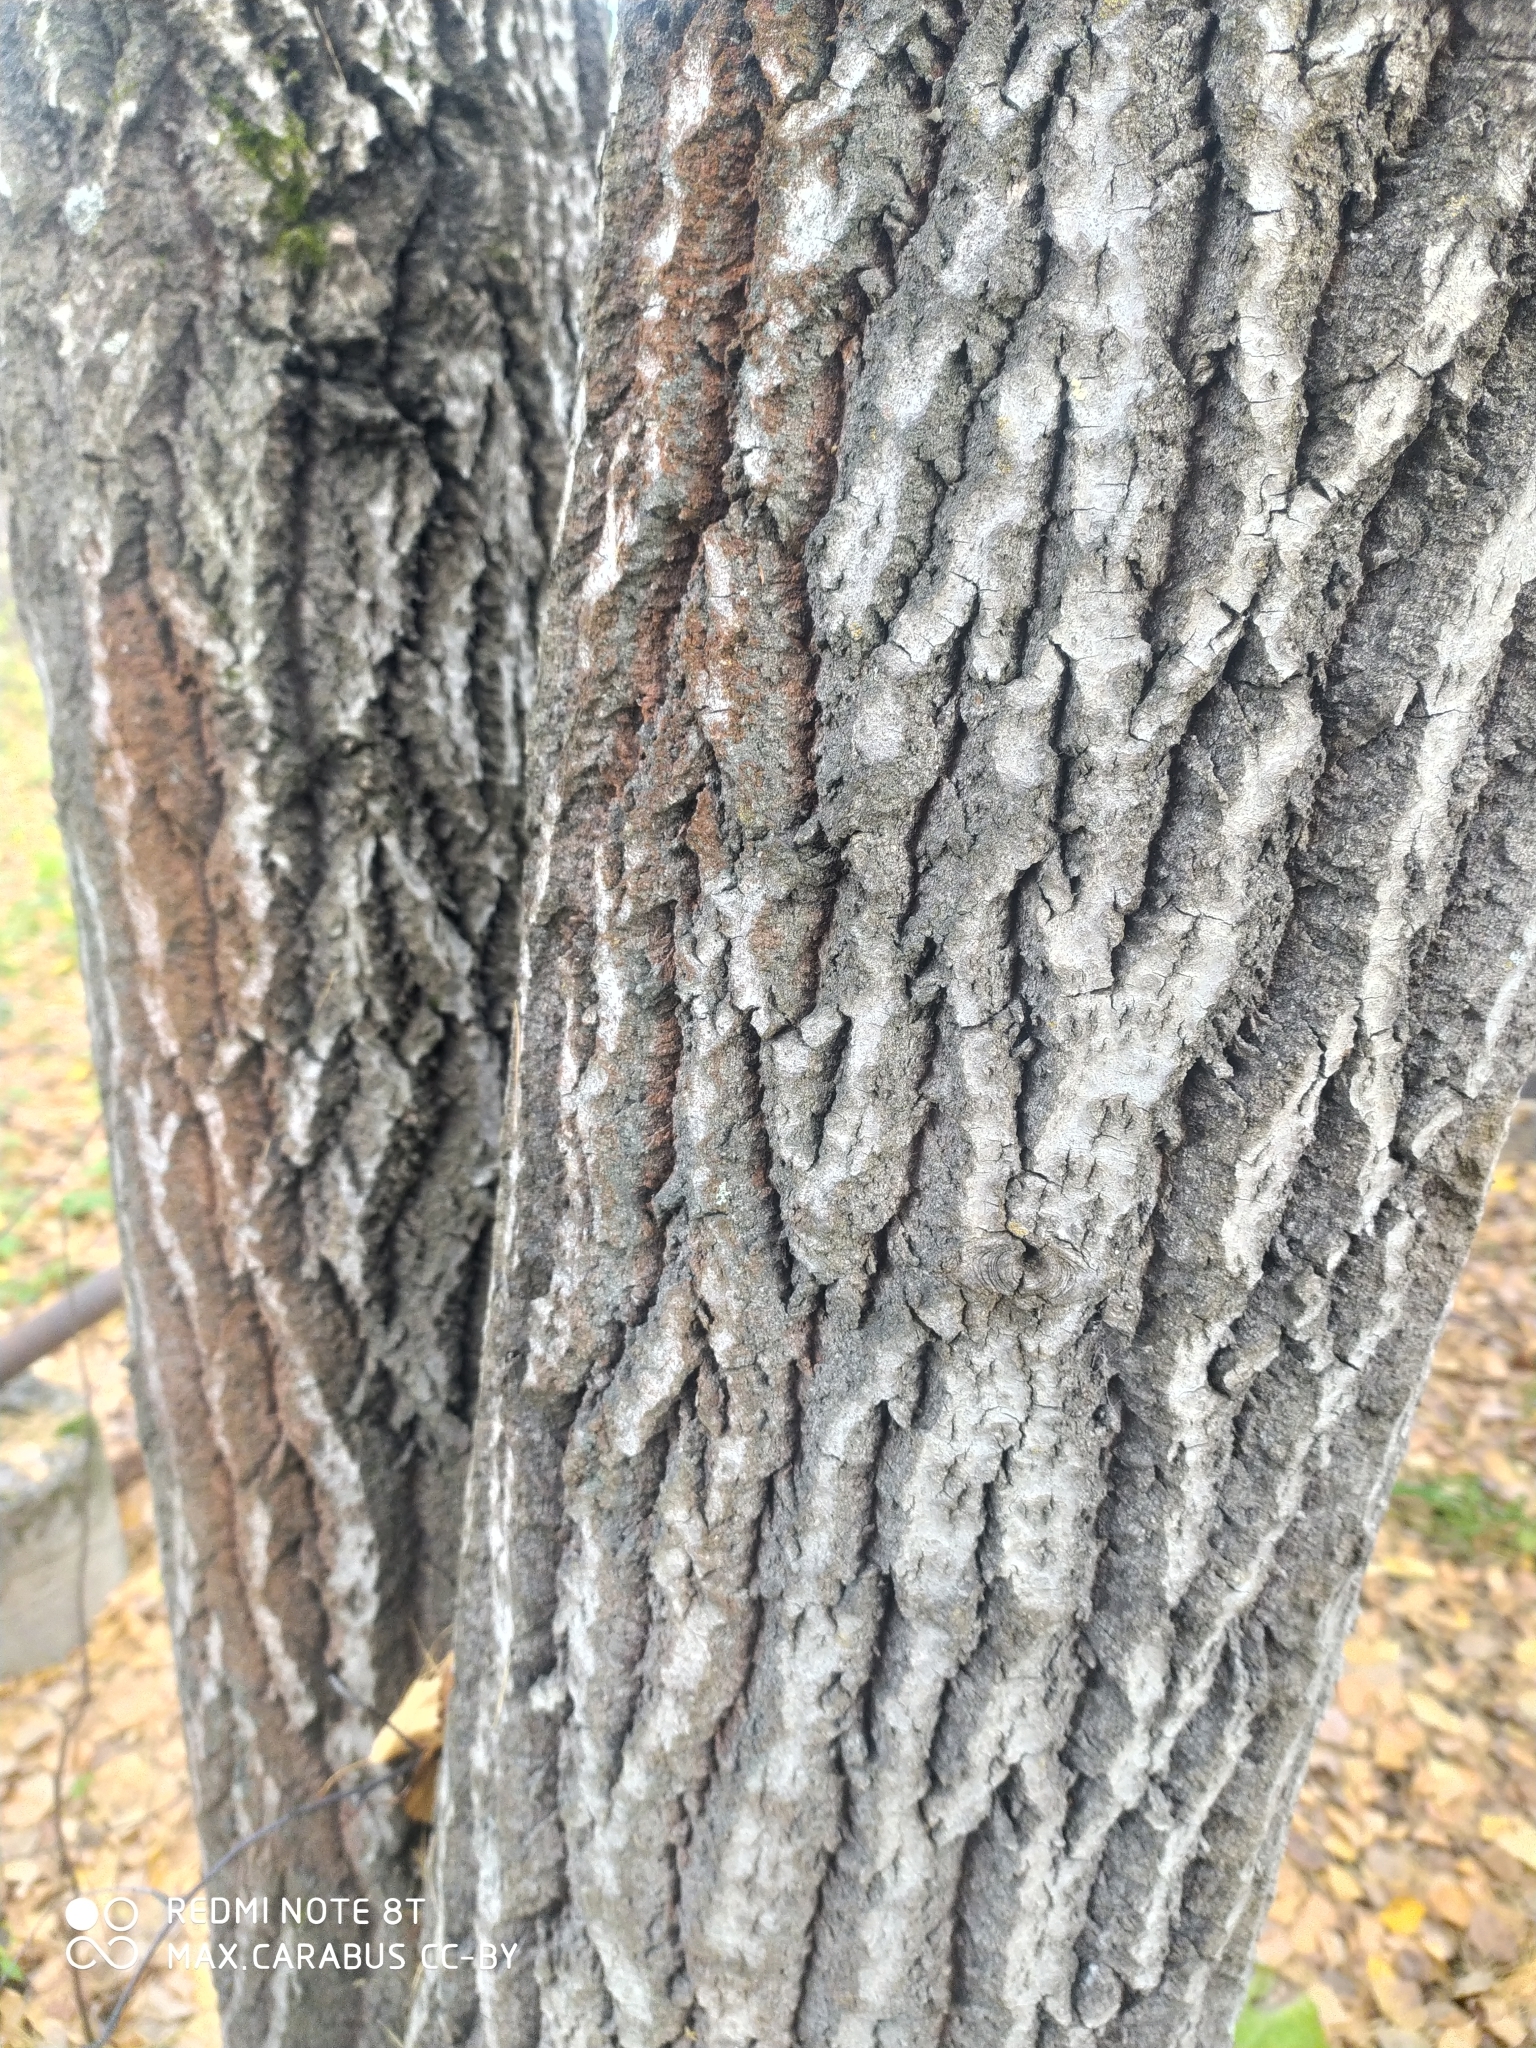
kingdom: Plantae
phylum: Tracheophyta
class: Magnoliopsida
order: Malpighiales
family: Salicaceae
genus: Populus
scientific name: Populus tremula
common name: European aspen
